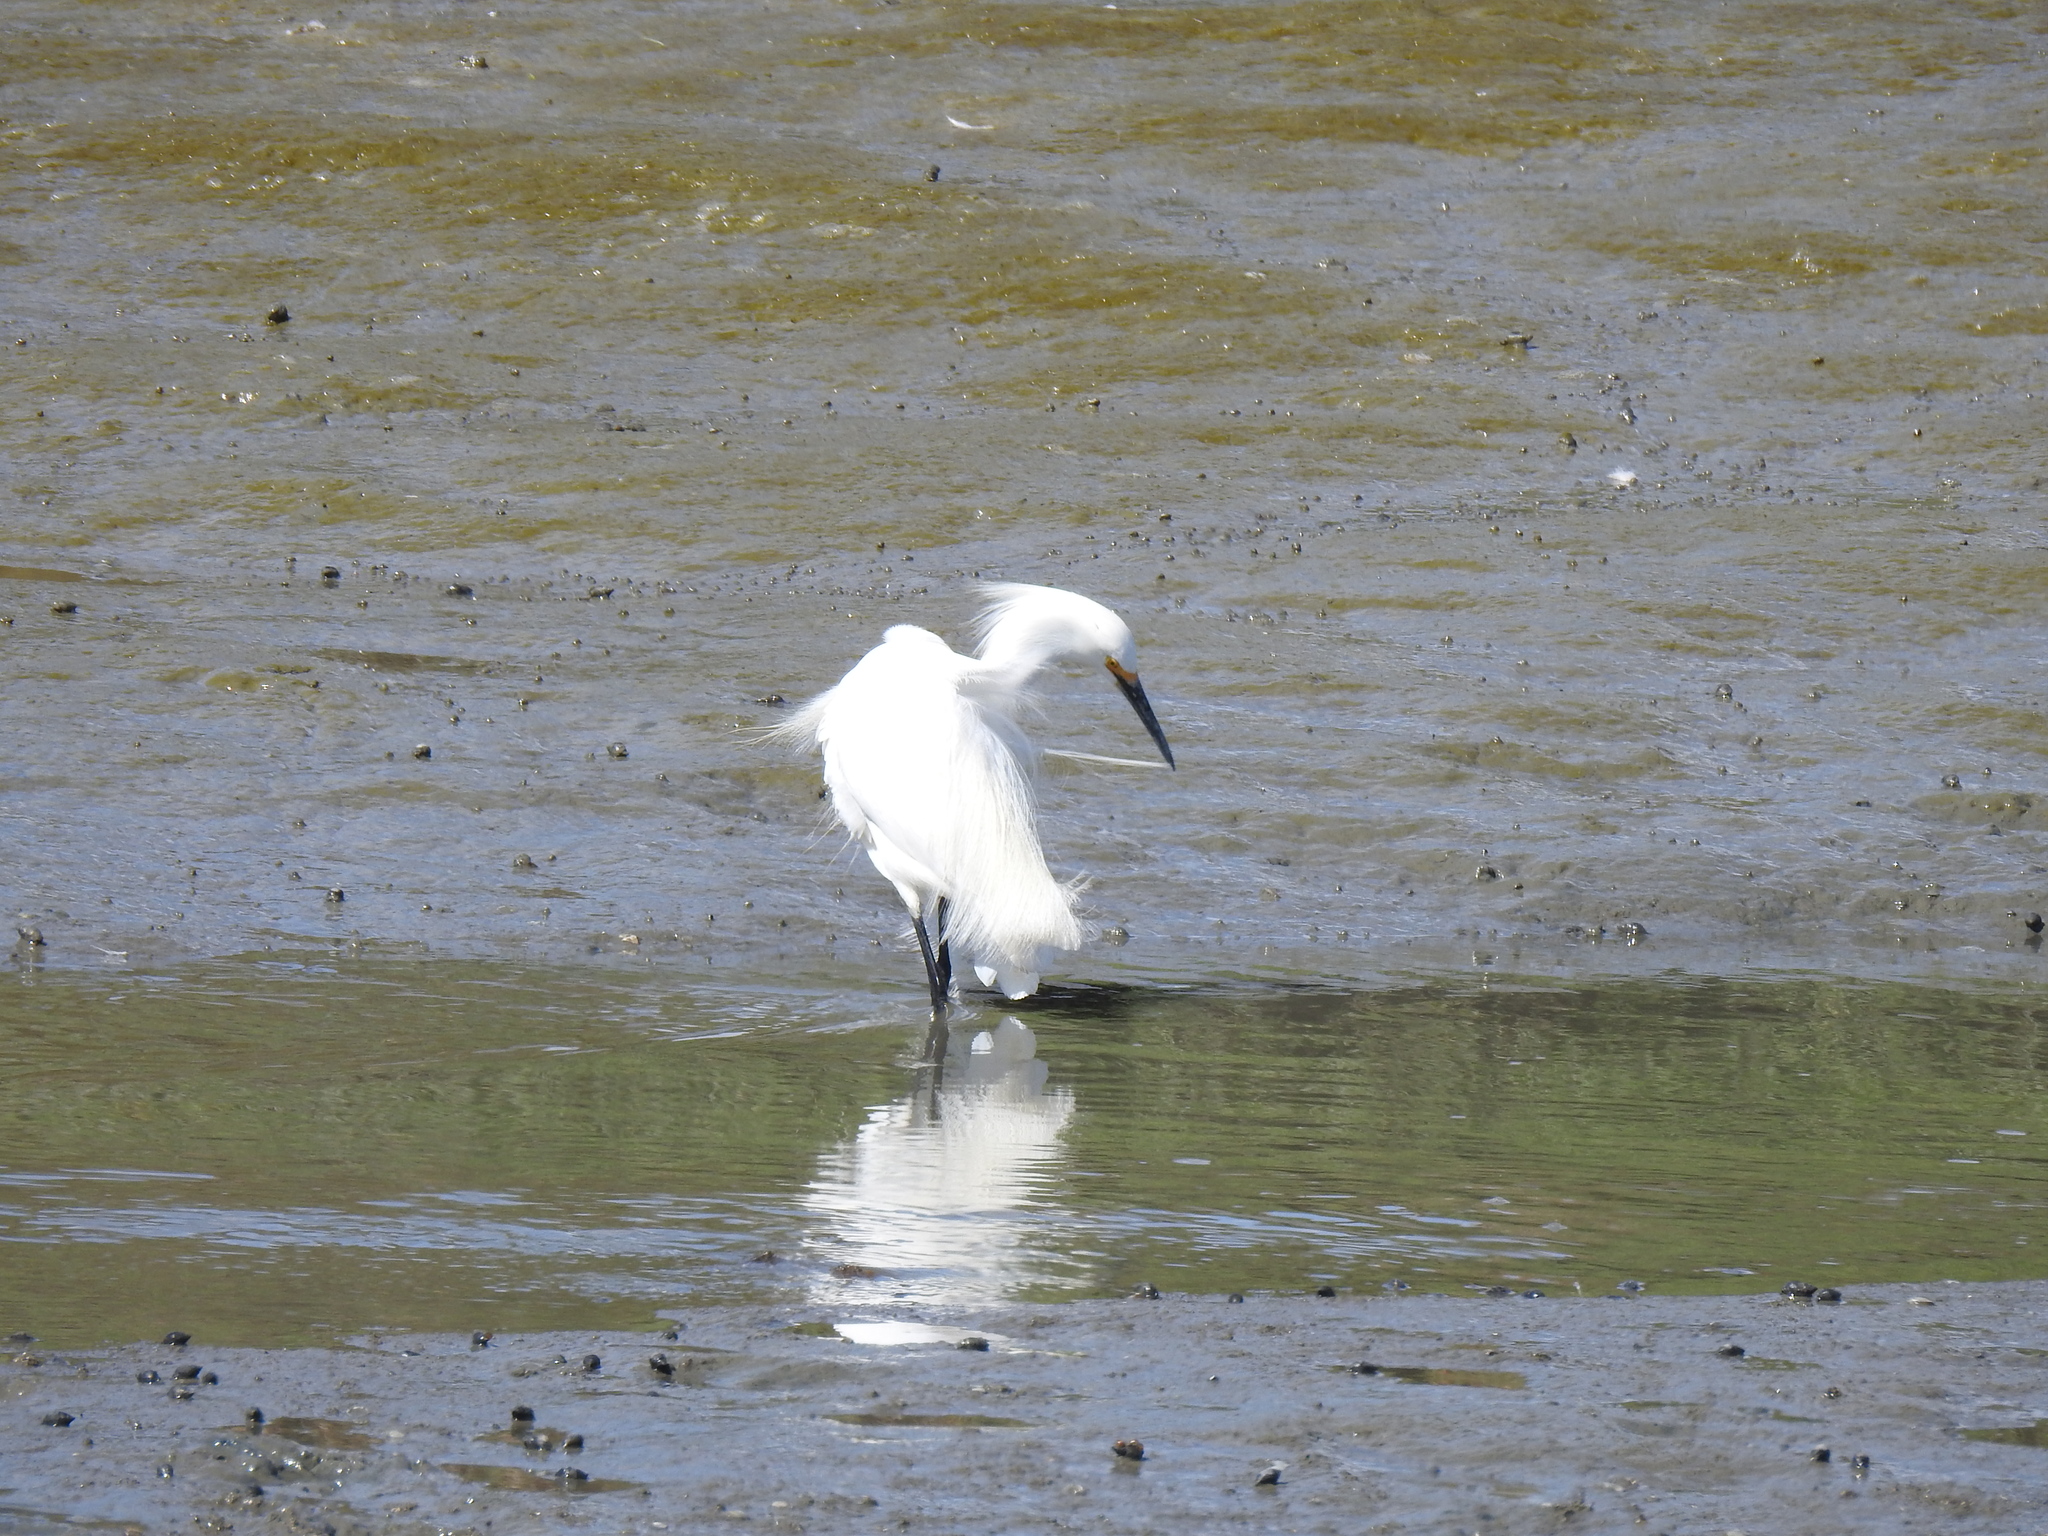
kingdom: Animalia
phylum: Chordata
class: Aves
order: Pelecaniformes
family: Ardeidae
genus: Egretta
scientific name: Egretta thula
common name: Snowy egret
